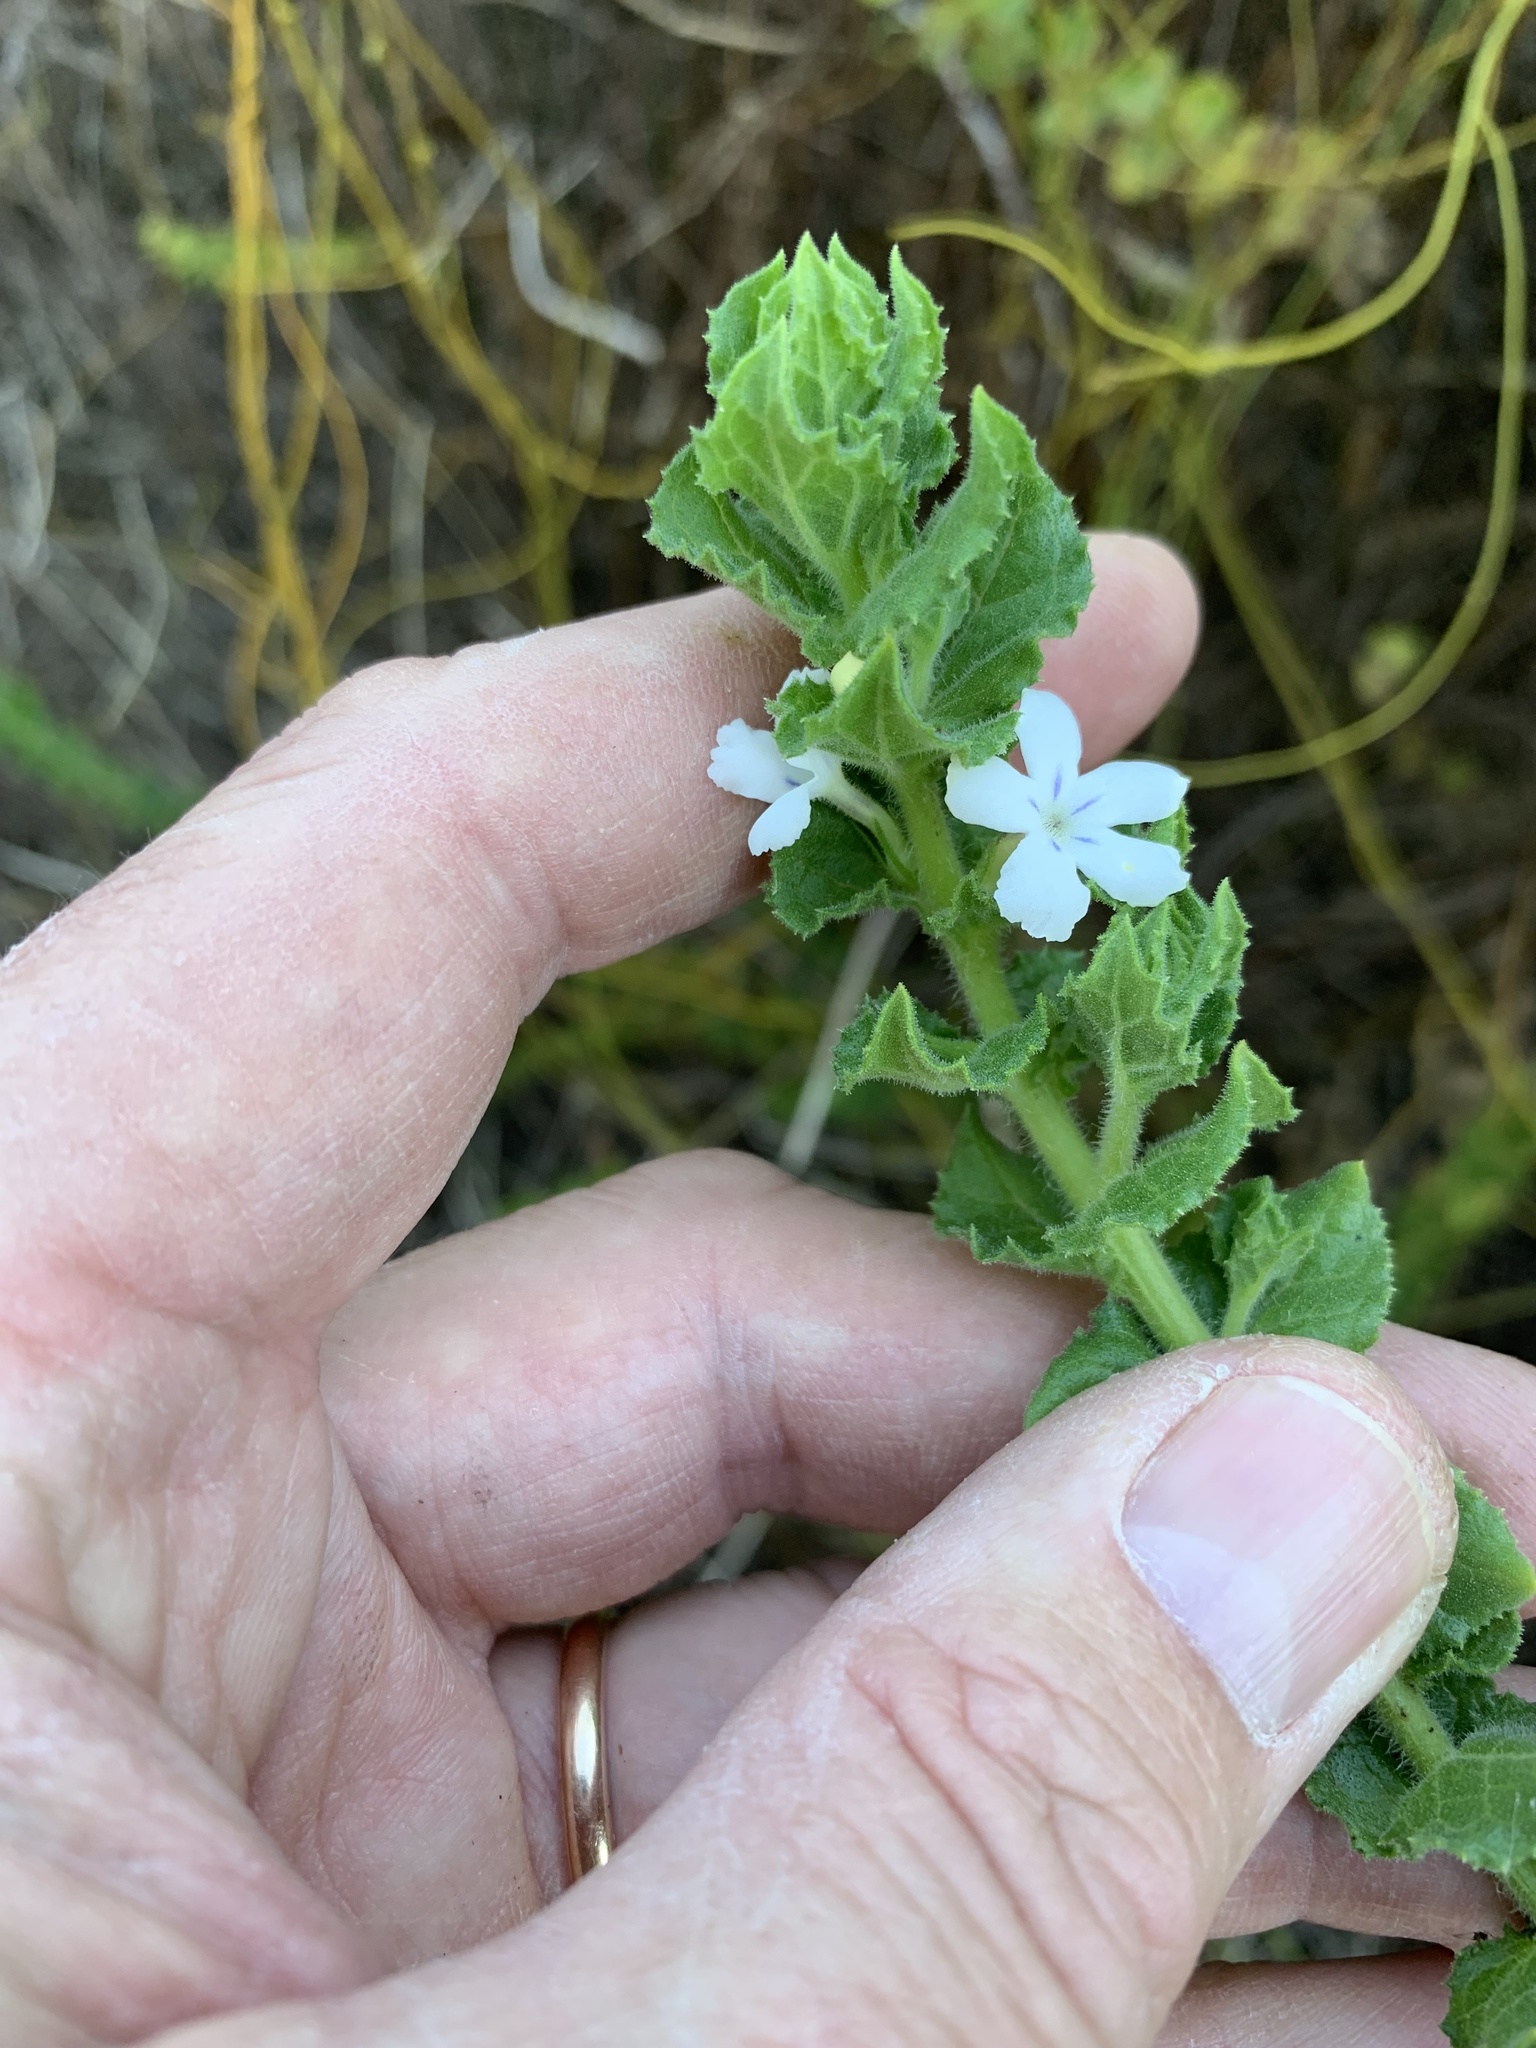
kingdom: Plantae
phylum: Tracheophyta
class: Magnoliopsida
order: Lamiales
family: Scrophulariaceae
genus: Oftia
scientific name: Oftia africana
